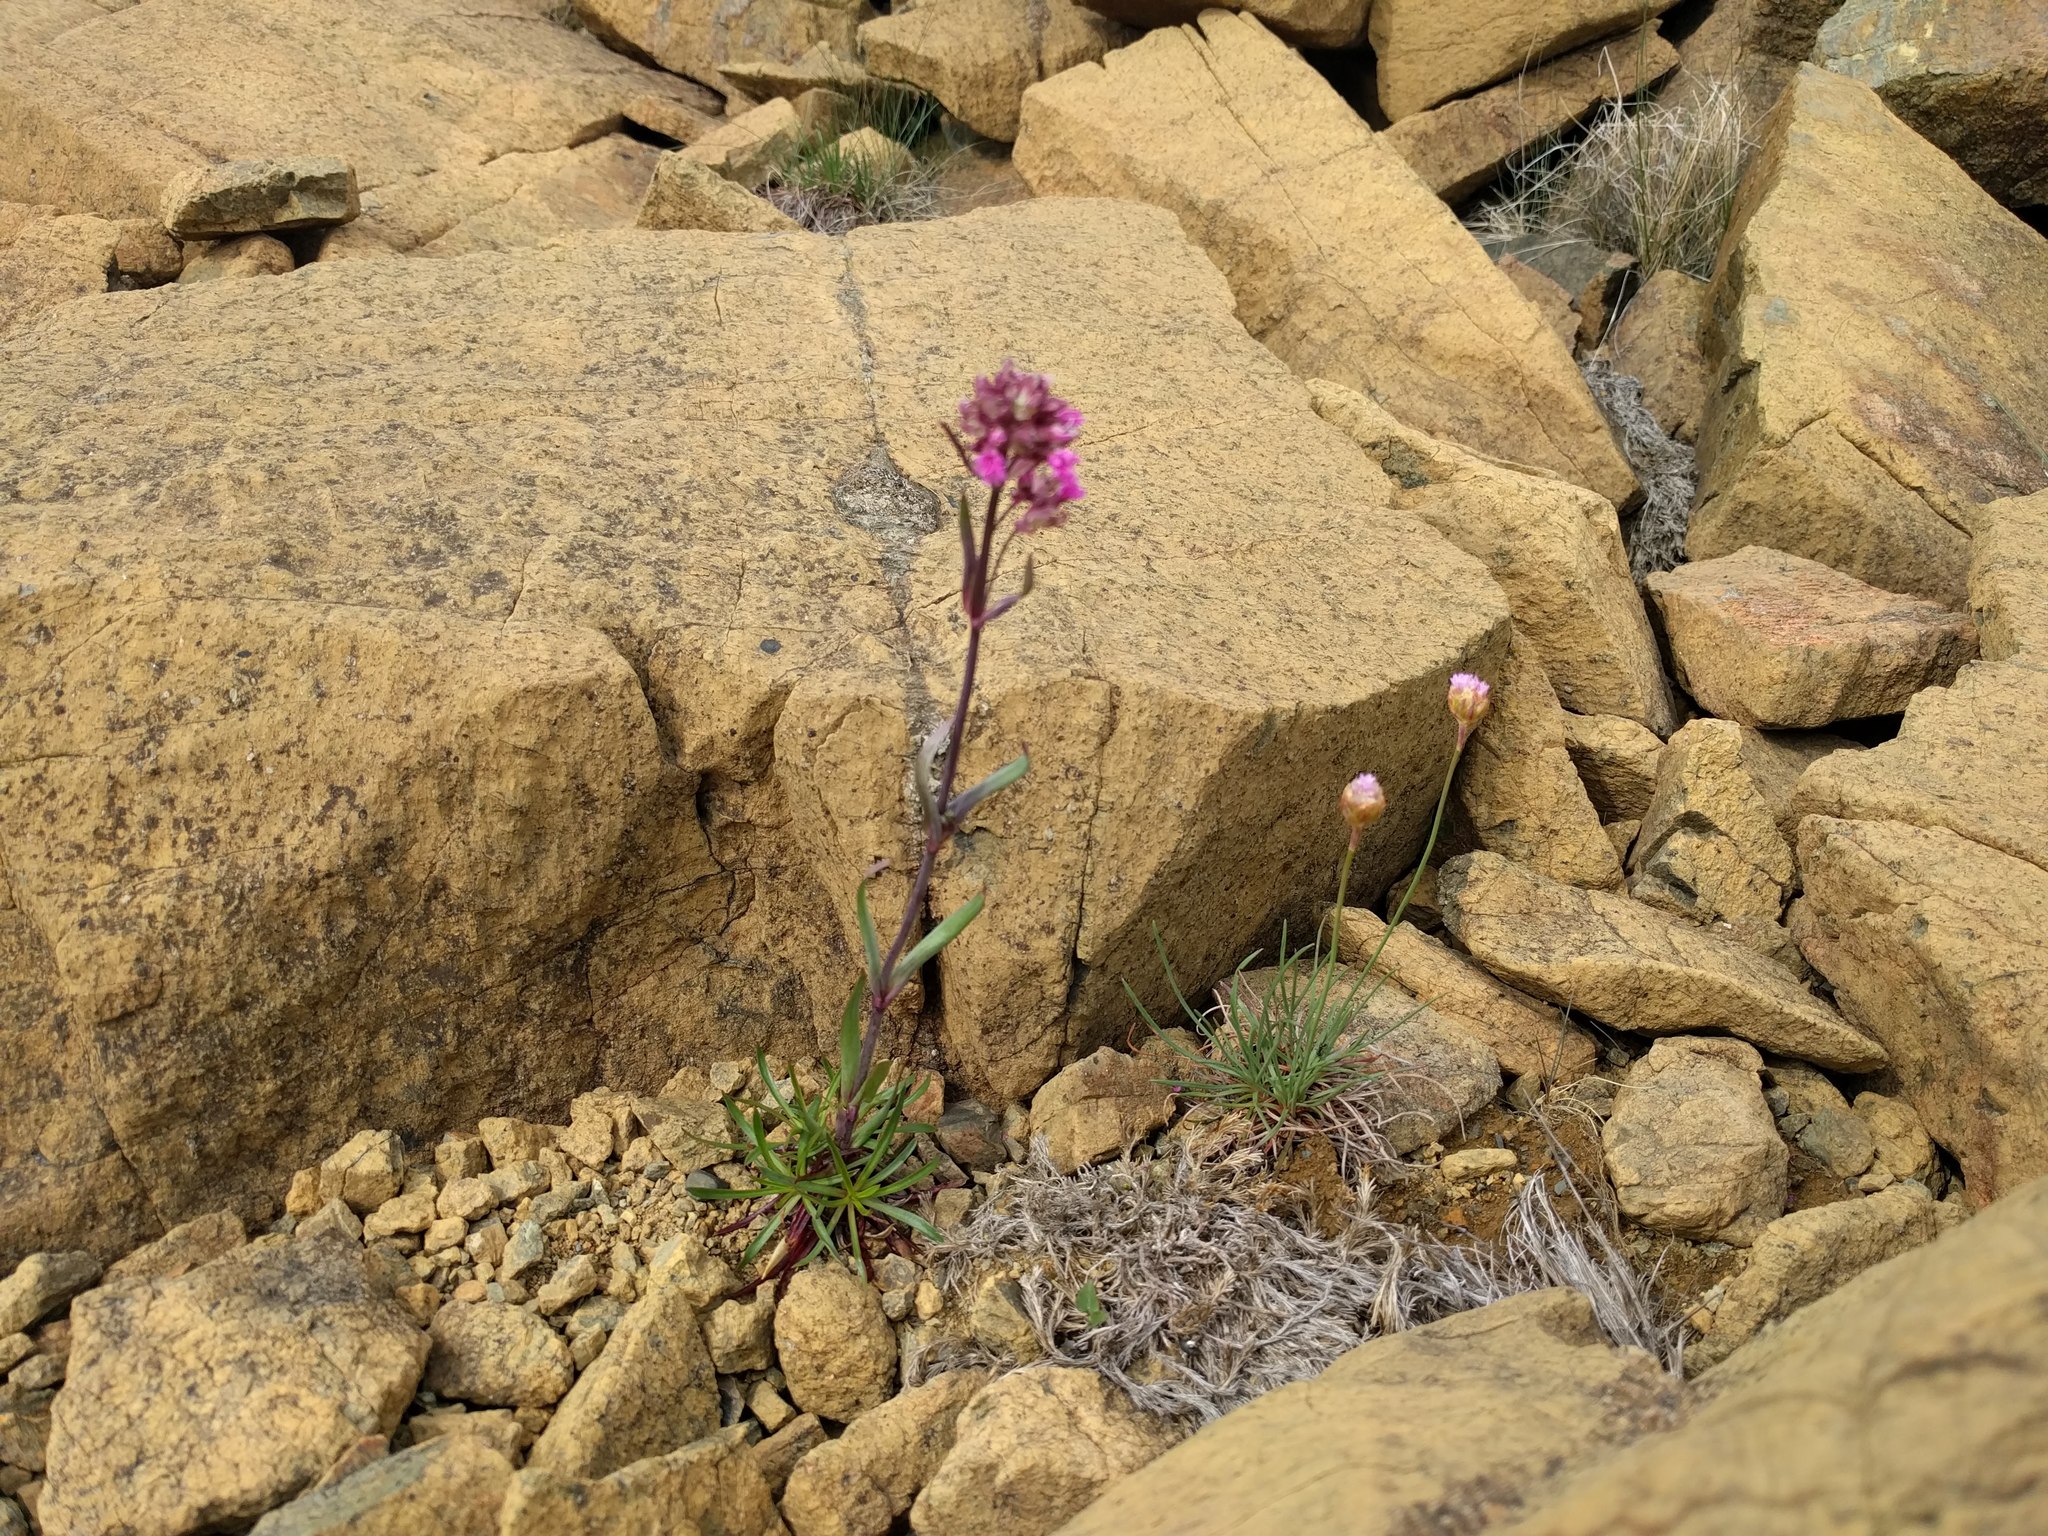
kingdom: Plantae
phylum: Tracheophyta
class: Magnoliopsida
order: Caryophyllales
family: Caryophyllaceae
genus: Viscaria
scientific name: Viscaria alpina
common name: Alpine campion
